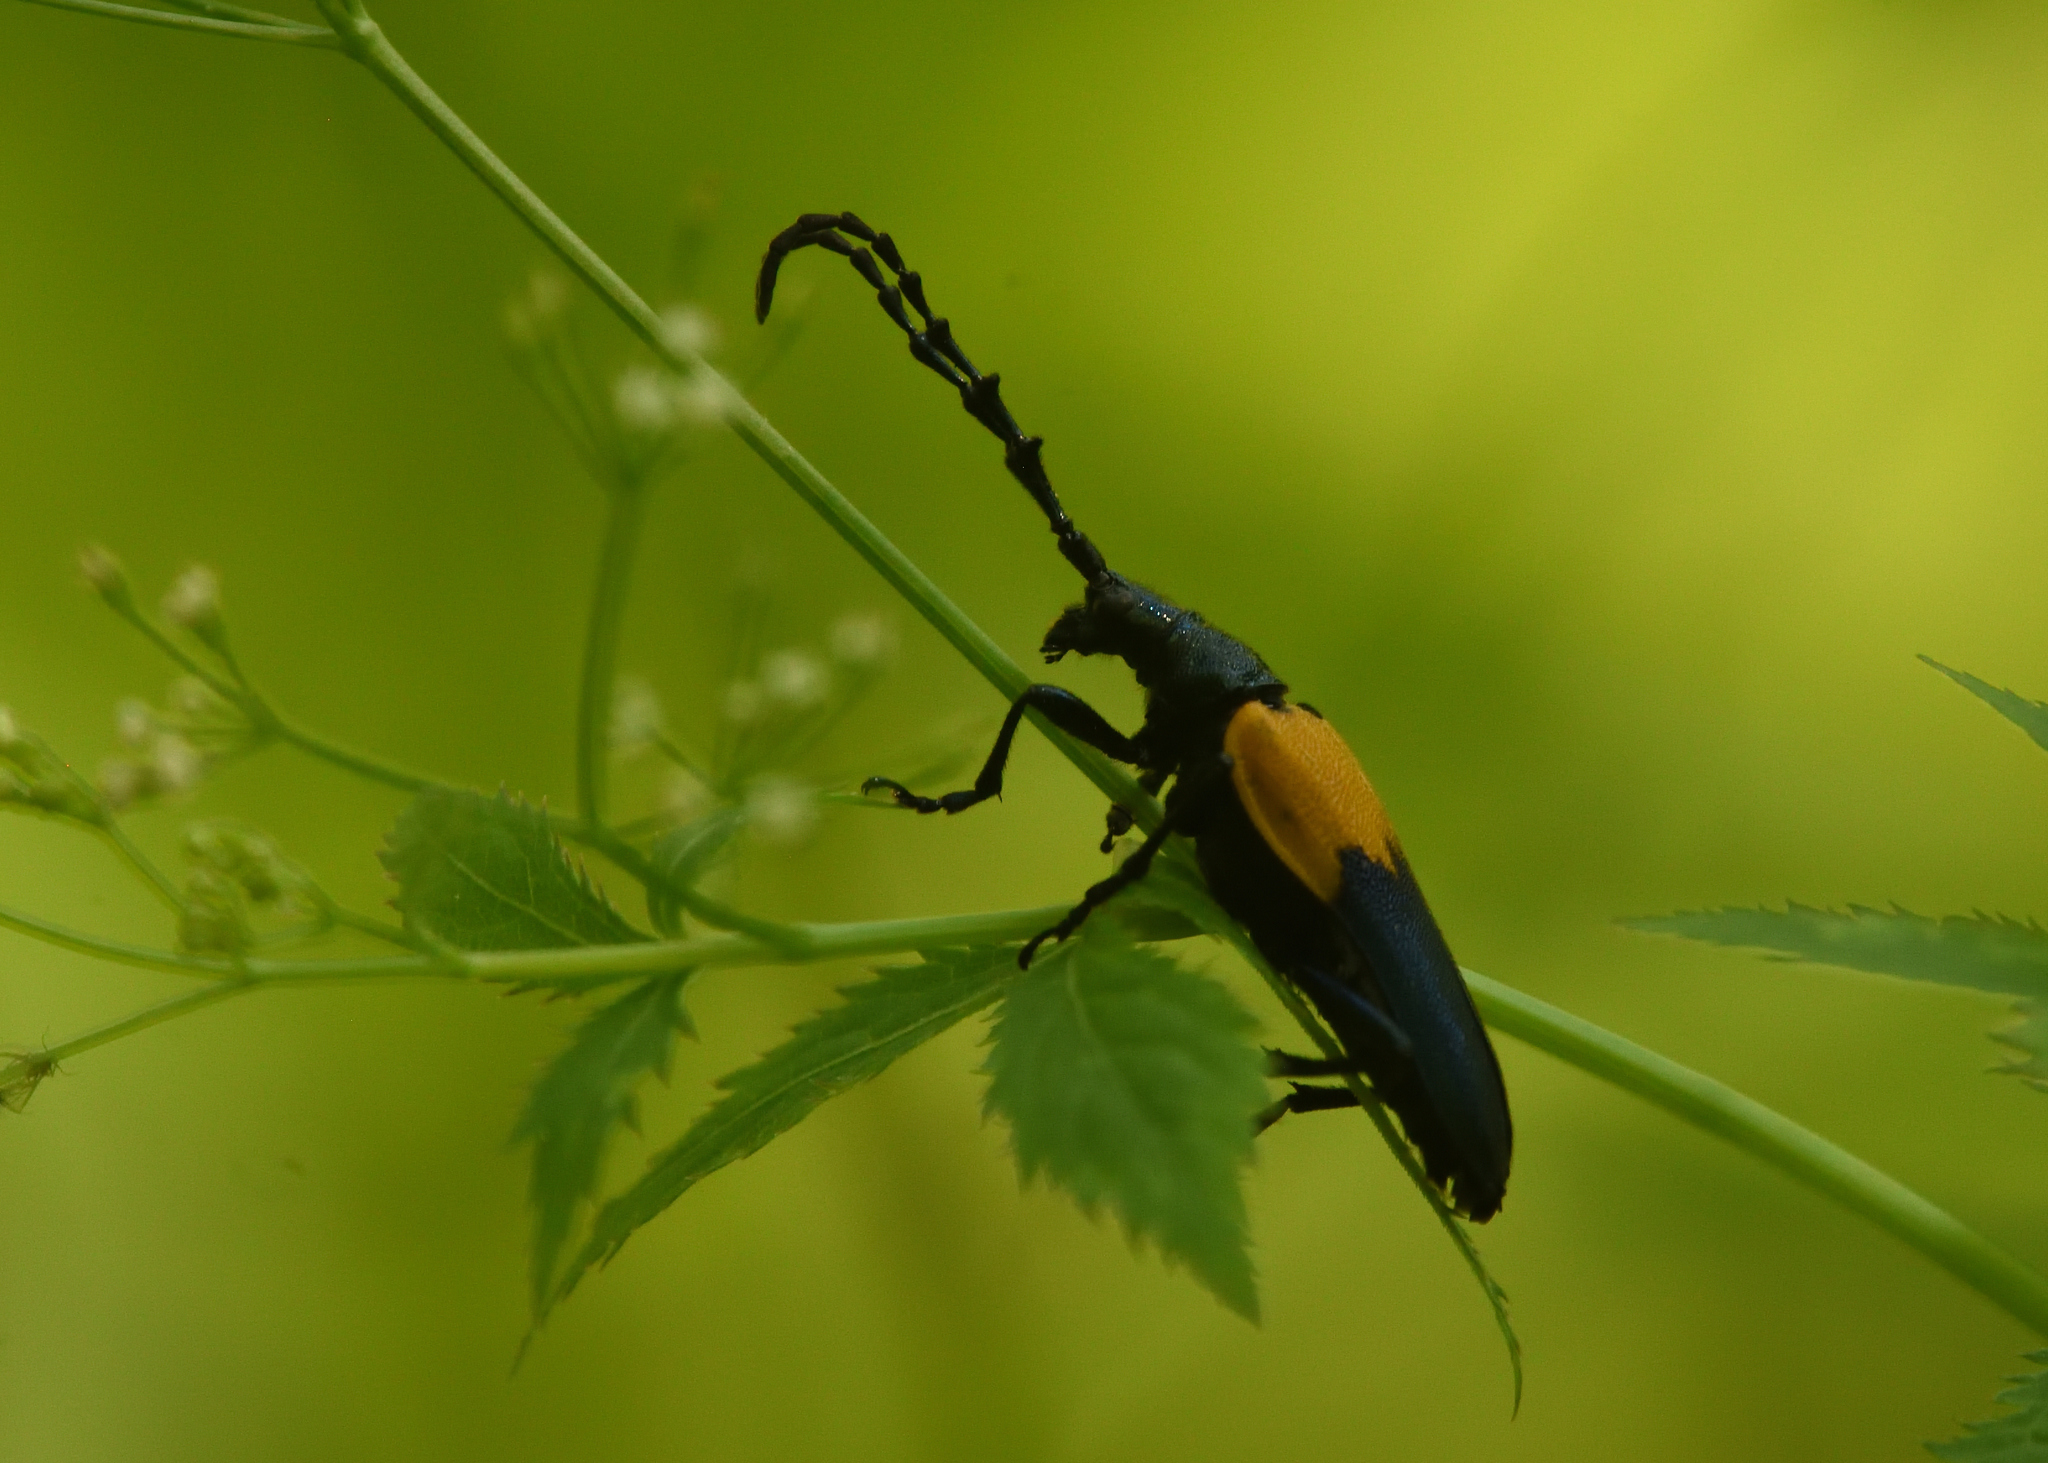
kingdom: Animalia
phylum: Arthropoda
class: Insecta
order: Coleoptera
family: Cerambycidae
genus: Desmocerus
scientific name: Desmocerus palliatus
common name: Eastern elderberry borer
